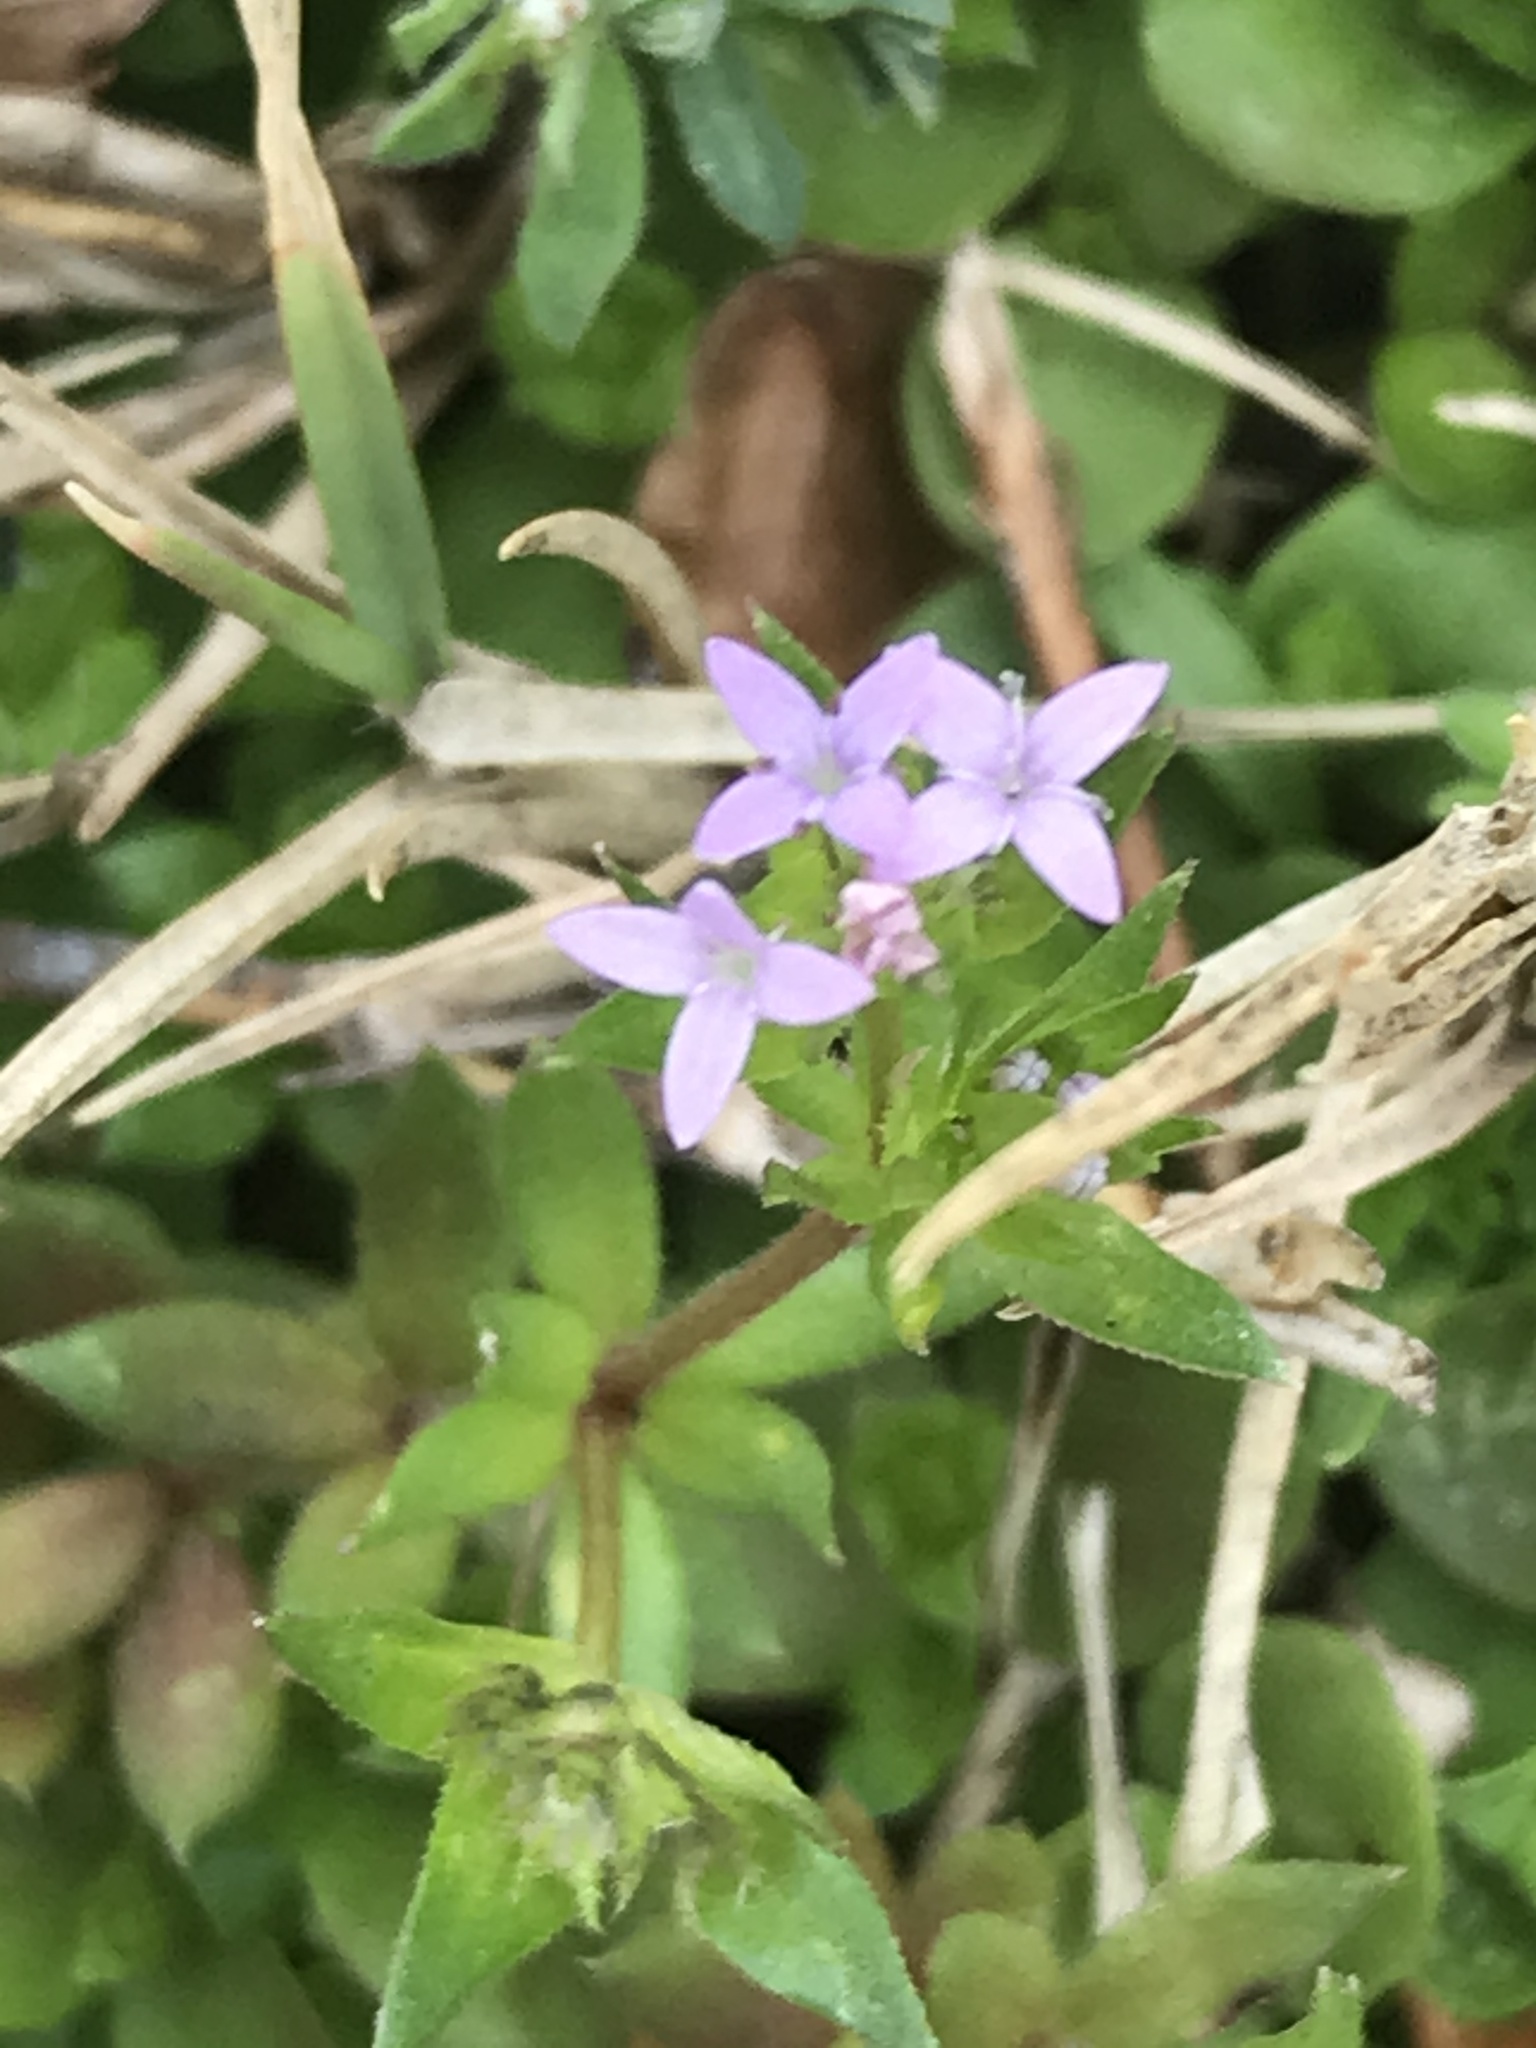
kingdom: Plantae
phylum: Tracheophyta
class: Magnoliopsida
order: Gentianales
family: Rubiaceae
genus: Sherardia
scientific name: Sherardia arvensis
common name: Field madder
